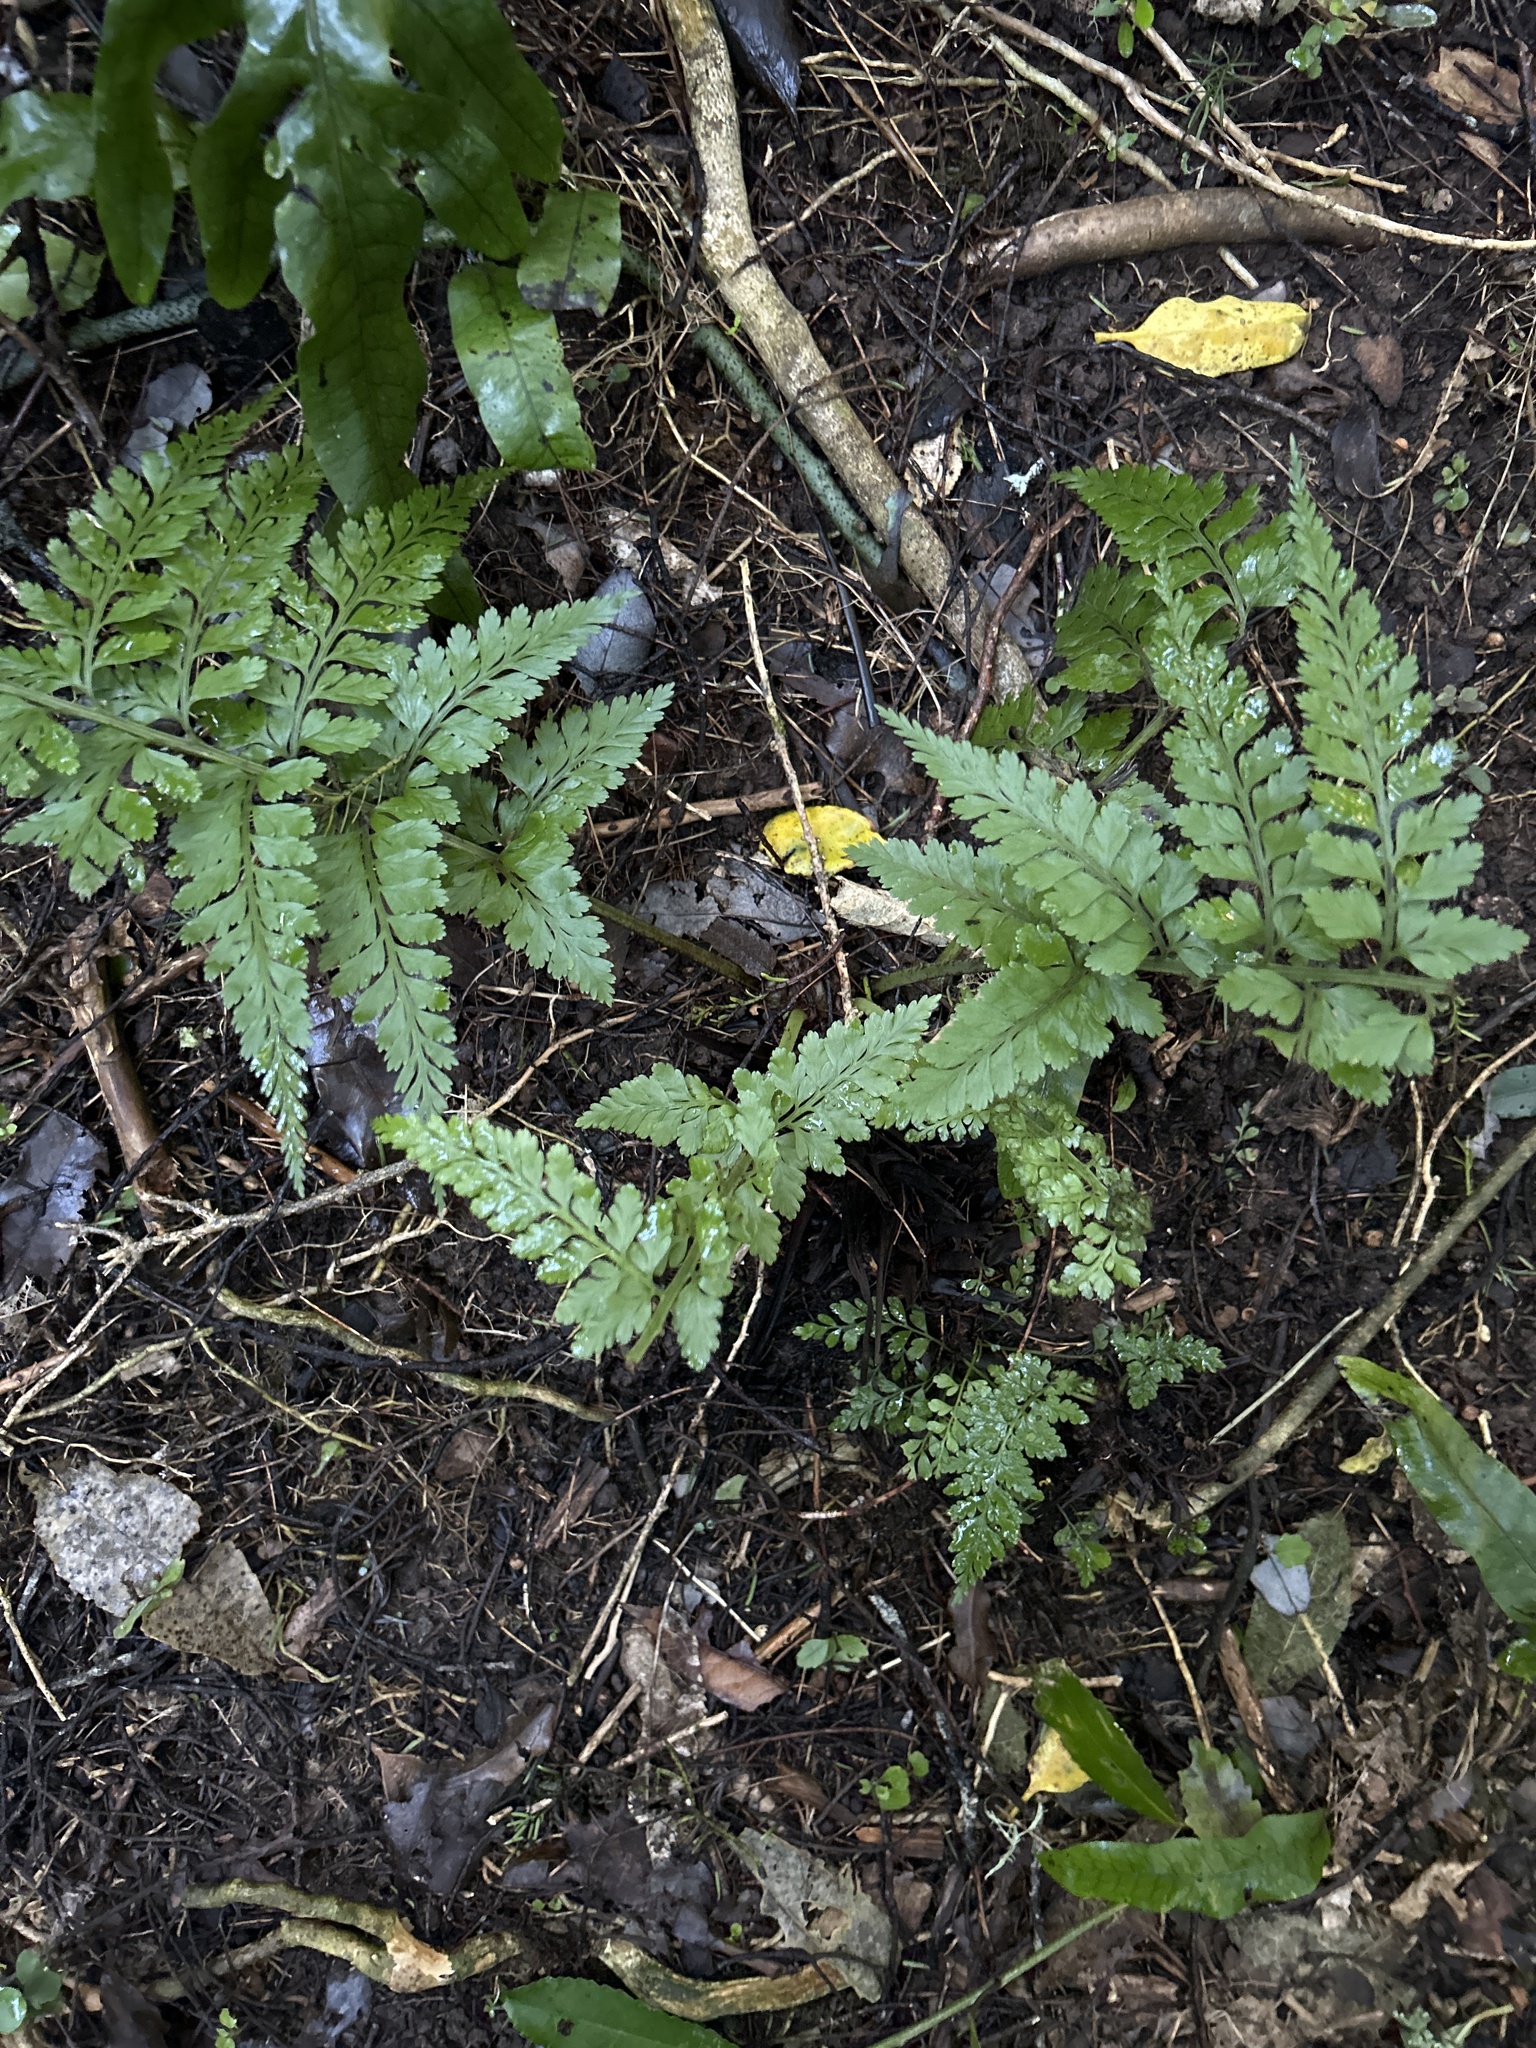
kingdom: Plantae
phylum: Tracheophyta
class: Polypodiopsida
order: Polypodiales
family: Aspleniaceae
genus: Asplenium
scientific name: Asplenium
